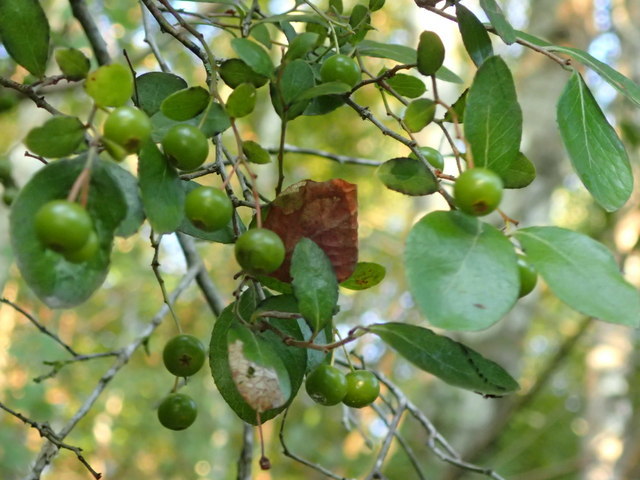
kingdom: Plantae
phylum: Tracheophyta
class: Magnoliopsida
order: Ericales
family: Ericaceae
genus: Vaccinium
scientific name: Vaccinium arboreum
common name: Farkleberry
